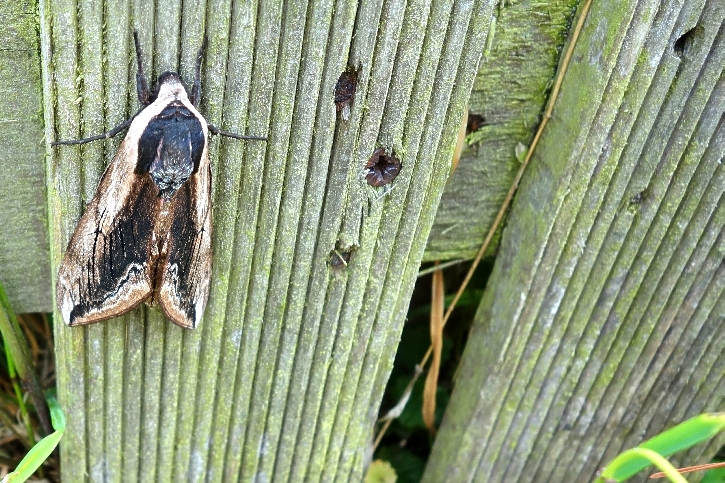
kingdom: Animalia
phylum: Arthropoda
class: Insecta
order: Lepidoptera
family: Sphingidae
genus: Sphinx
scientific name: Sphinx ligustri
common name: Privet hawk-moth
